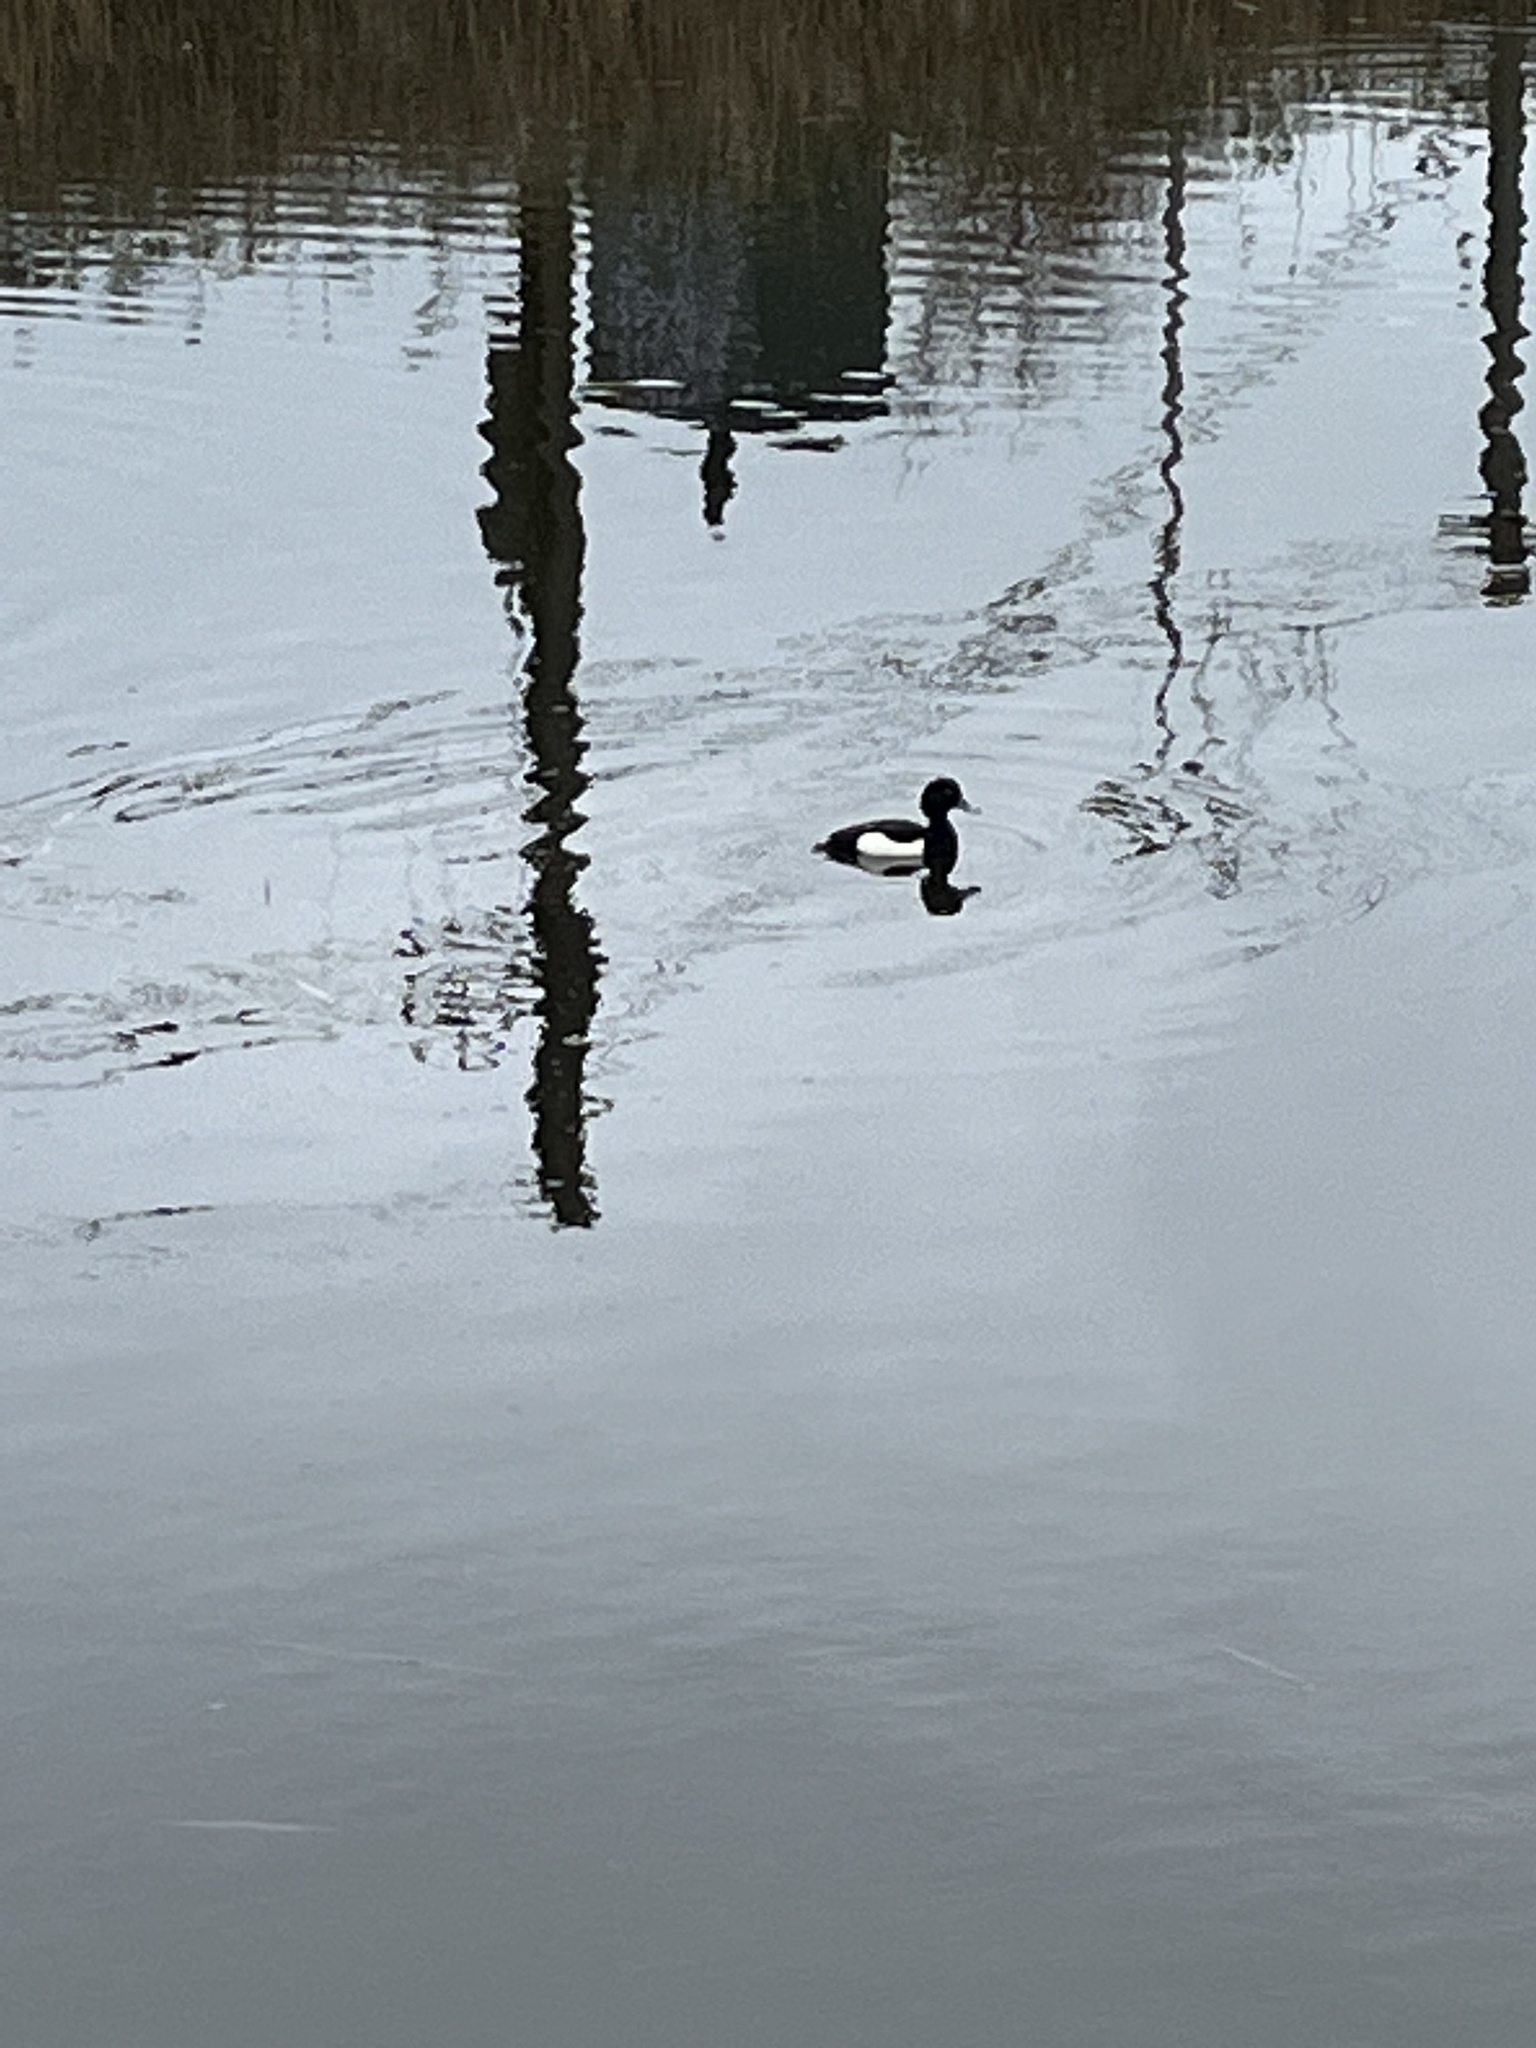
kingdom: Animalia
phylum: Chordata
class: Aves
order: Anseriformes
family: Anatidae
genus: Aythya
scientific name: Aythya fuligula
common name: Tufted duck
